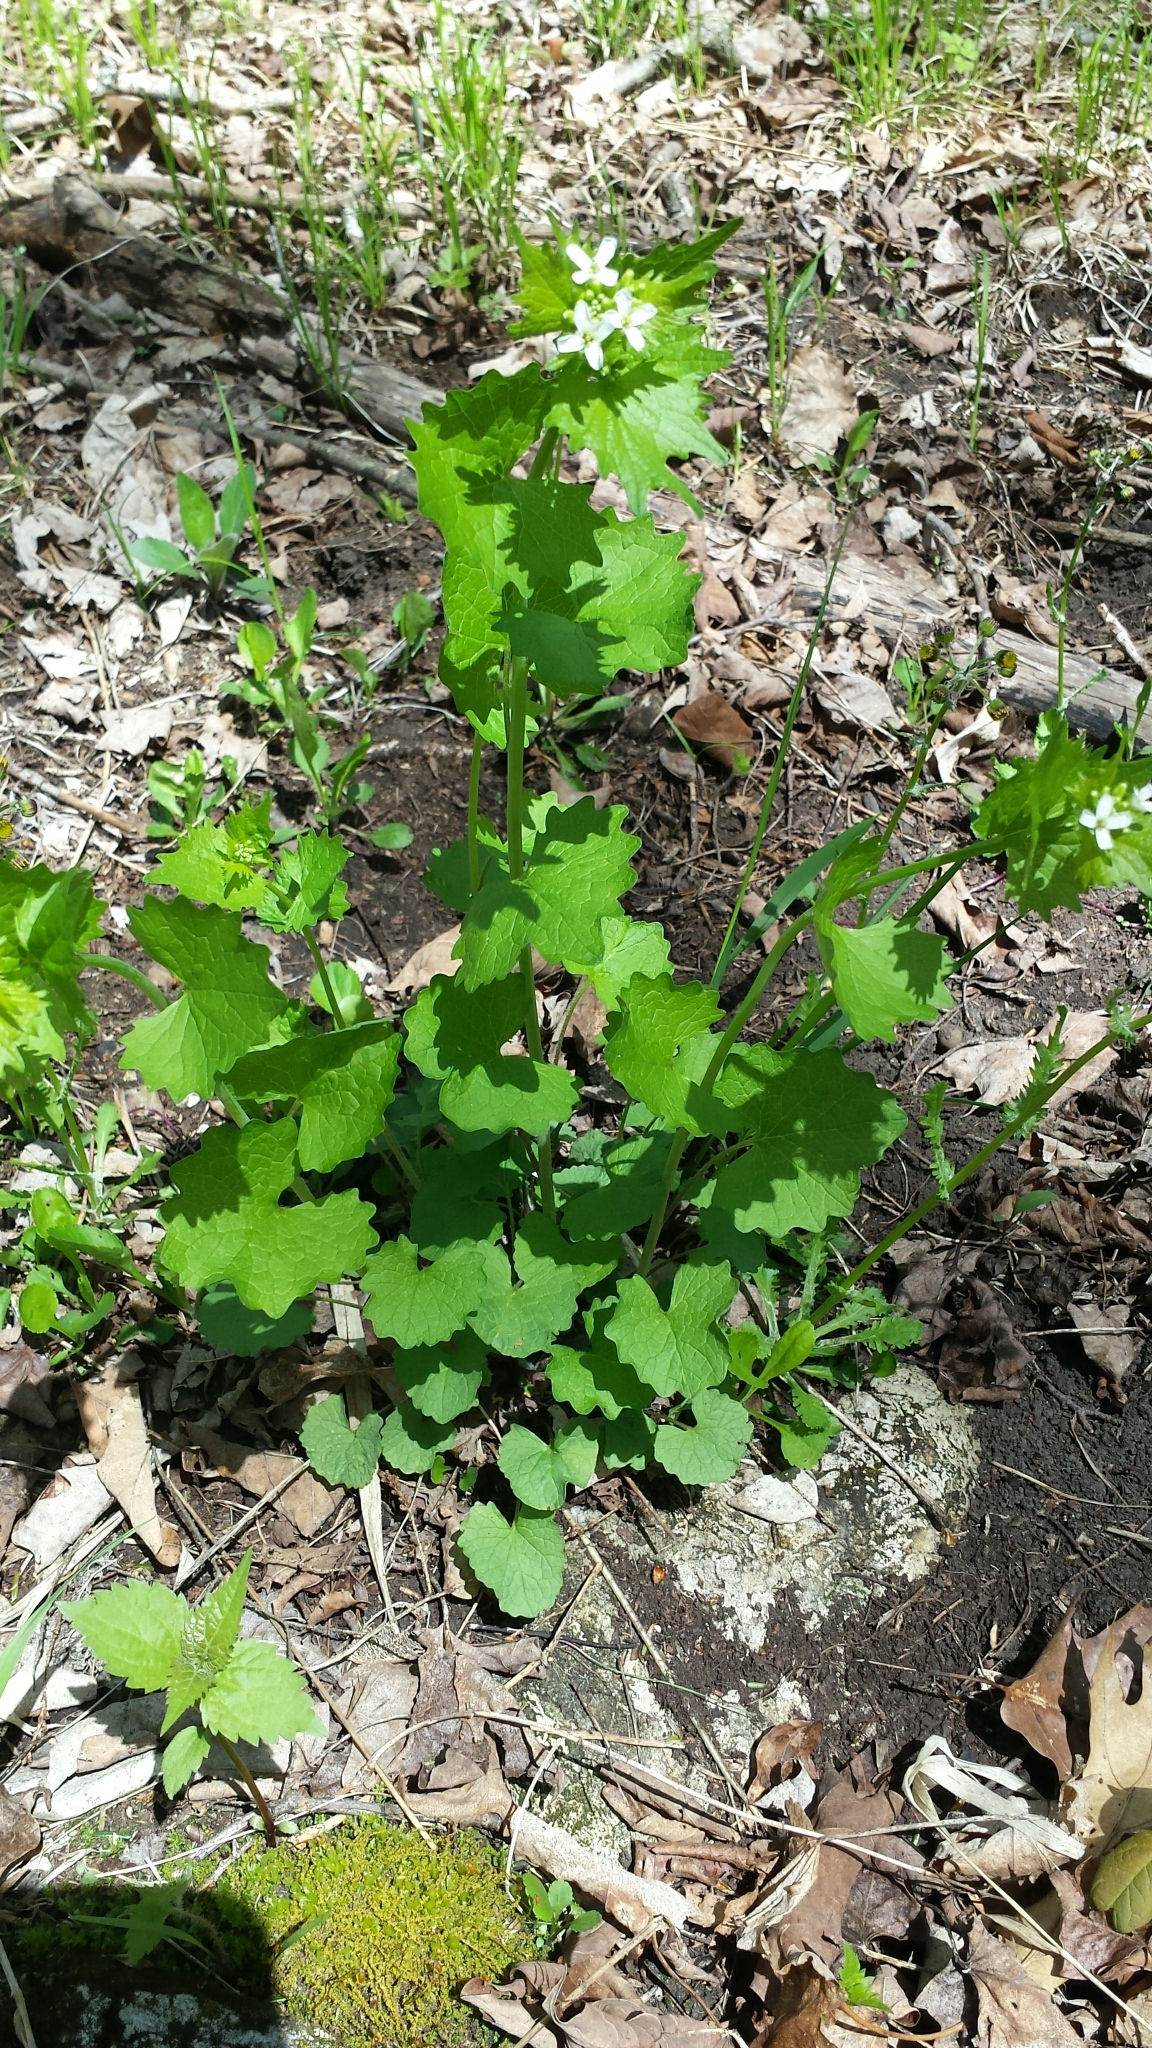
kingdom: Plantae
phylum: Tracheophyta
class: Magnoliopsida
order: Brassicales
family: Brassicaceae
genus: Alliaria
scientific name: Alliaria petiolata
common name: Garlic mustard
